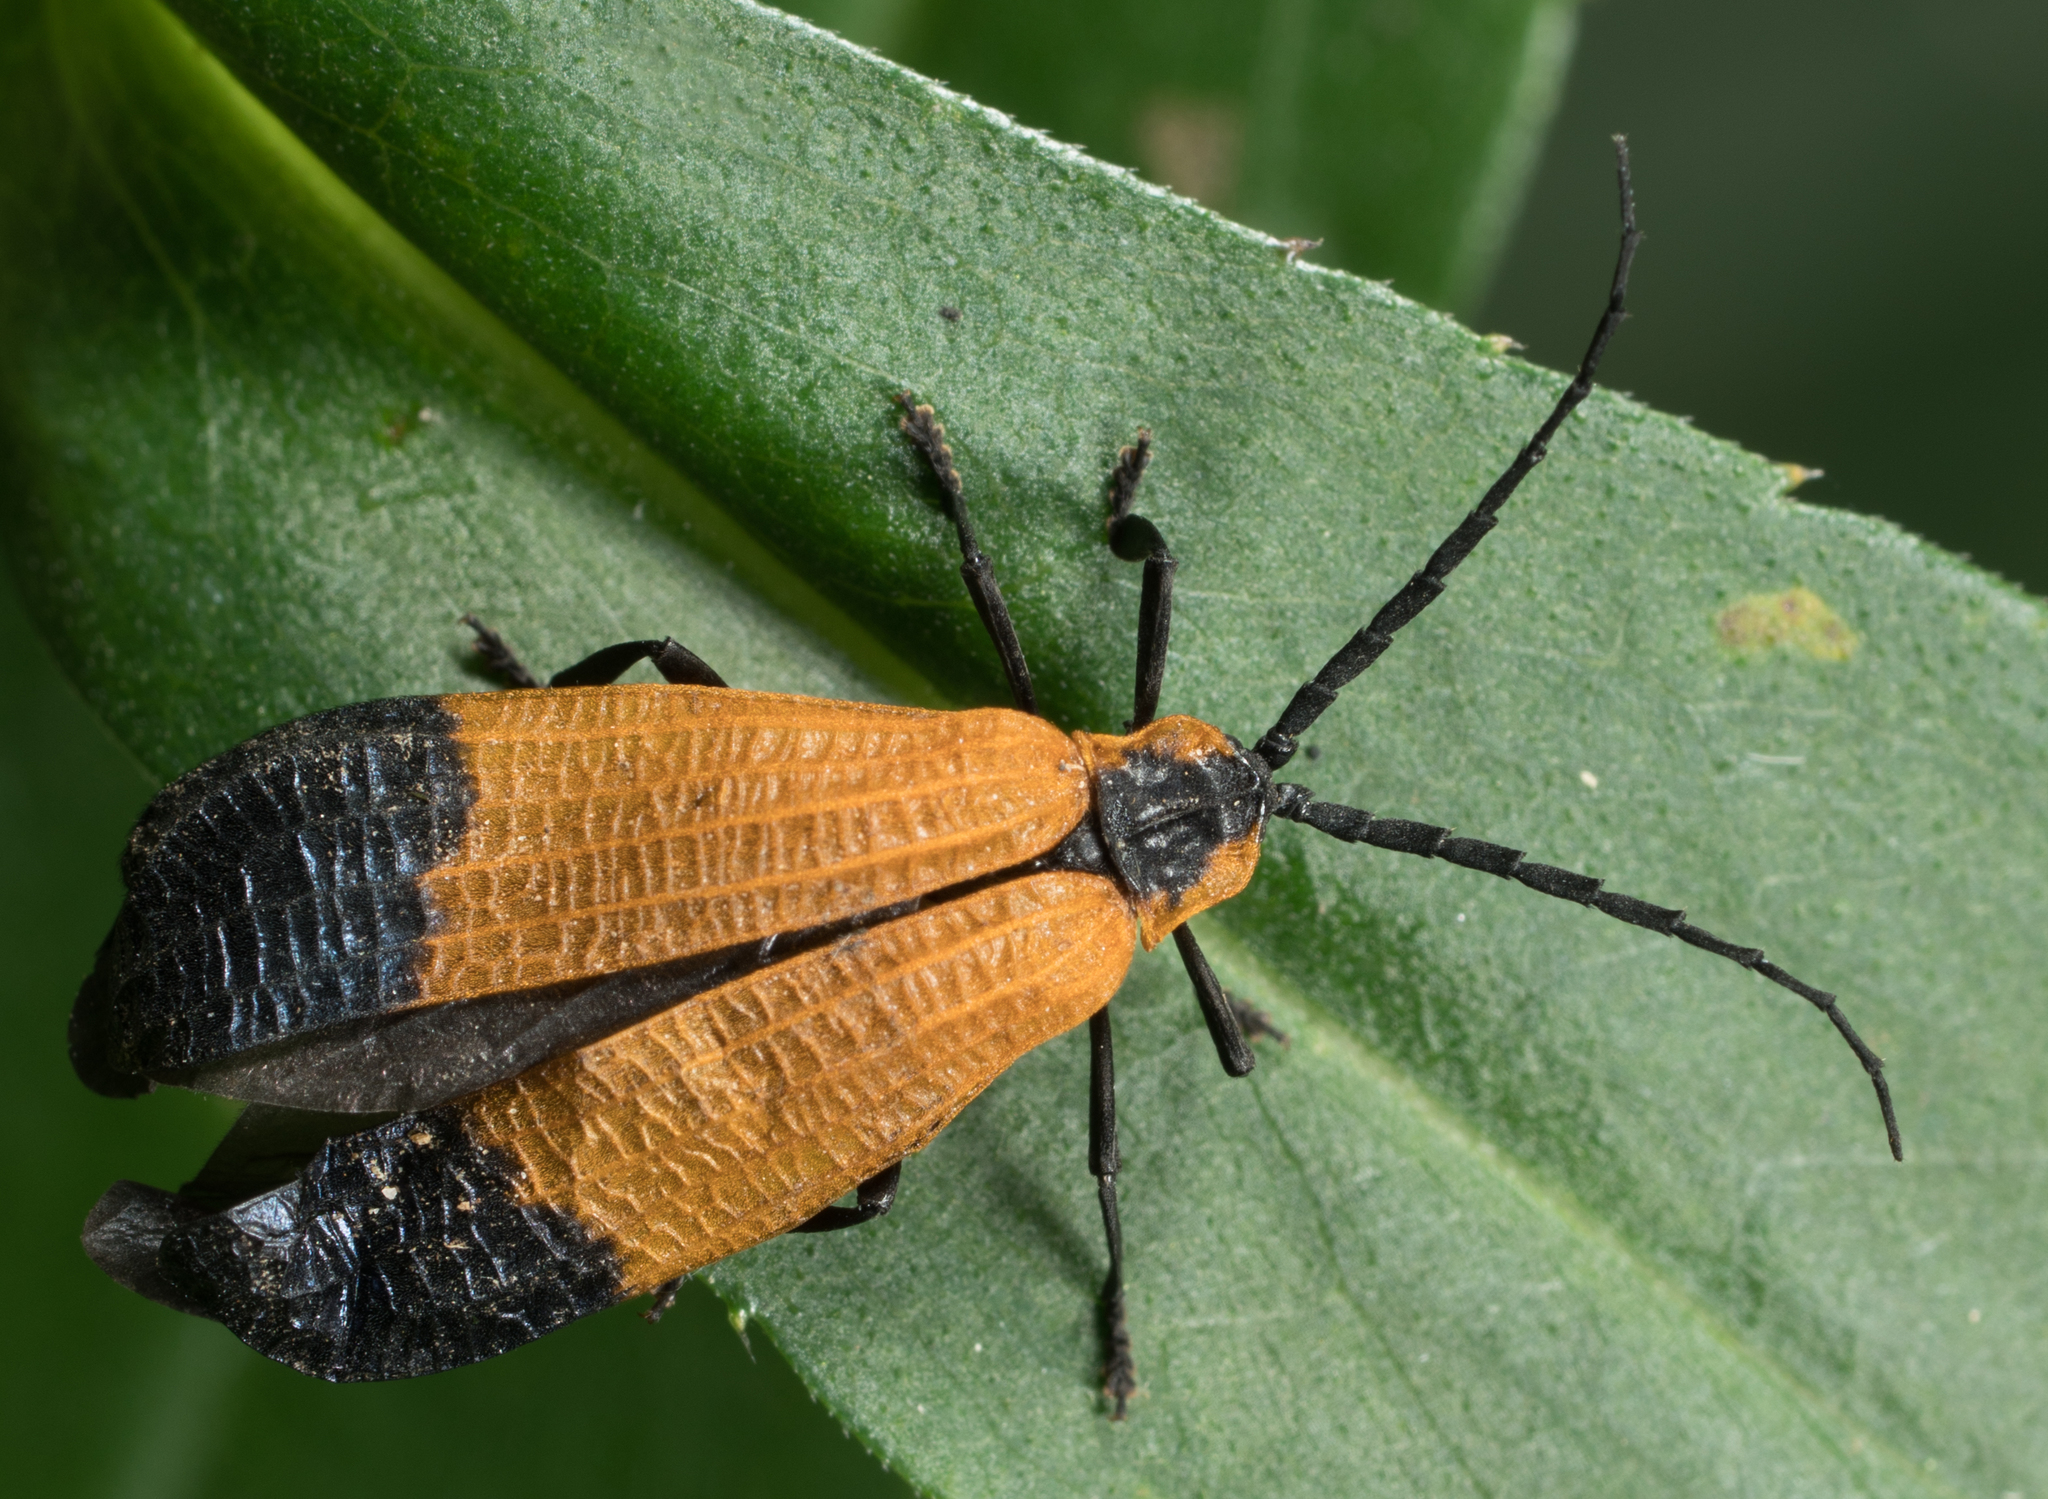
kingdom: Animalia
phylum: Arthropoda
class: Insecta
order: Coleoptera
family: Lycidae
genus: Calopteron
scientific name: Calopteron terminale
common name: End band net-winged beetle
